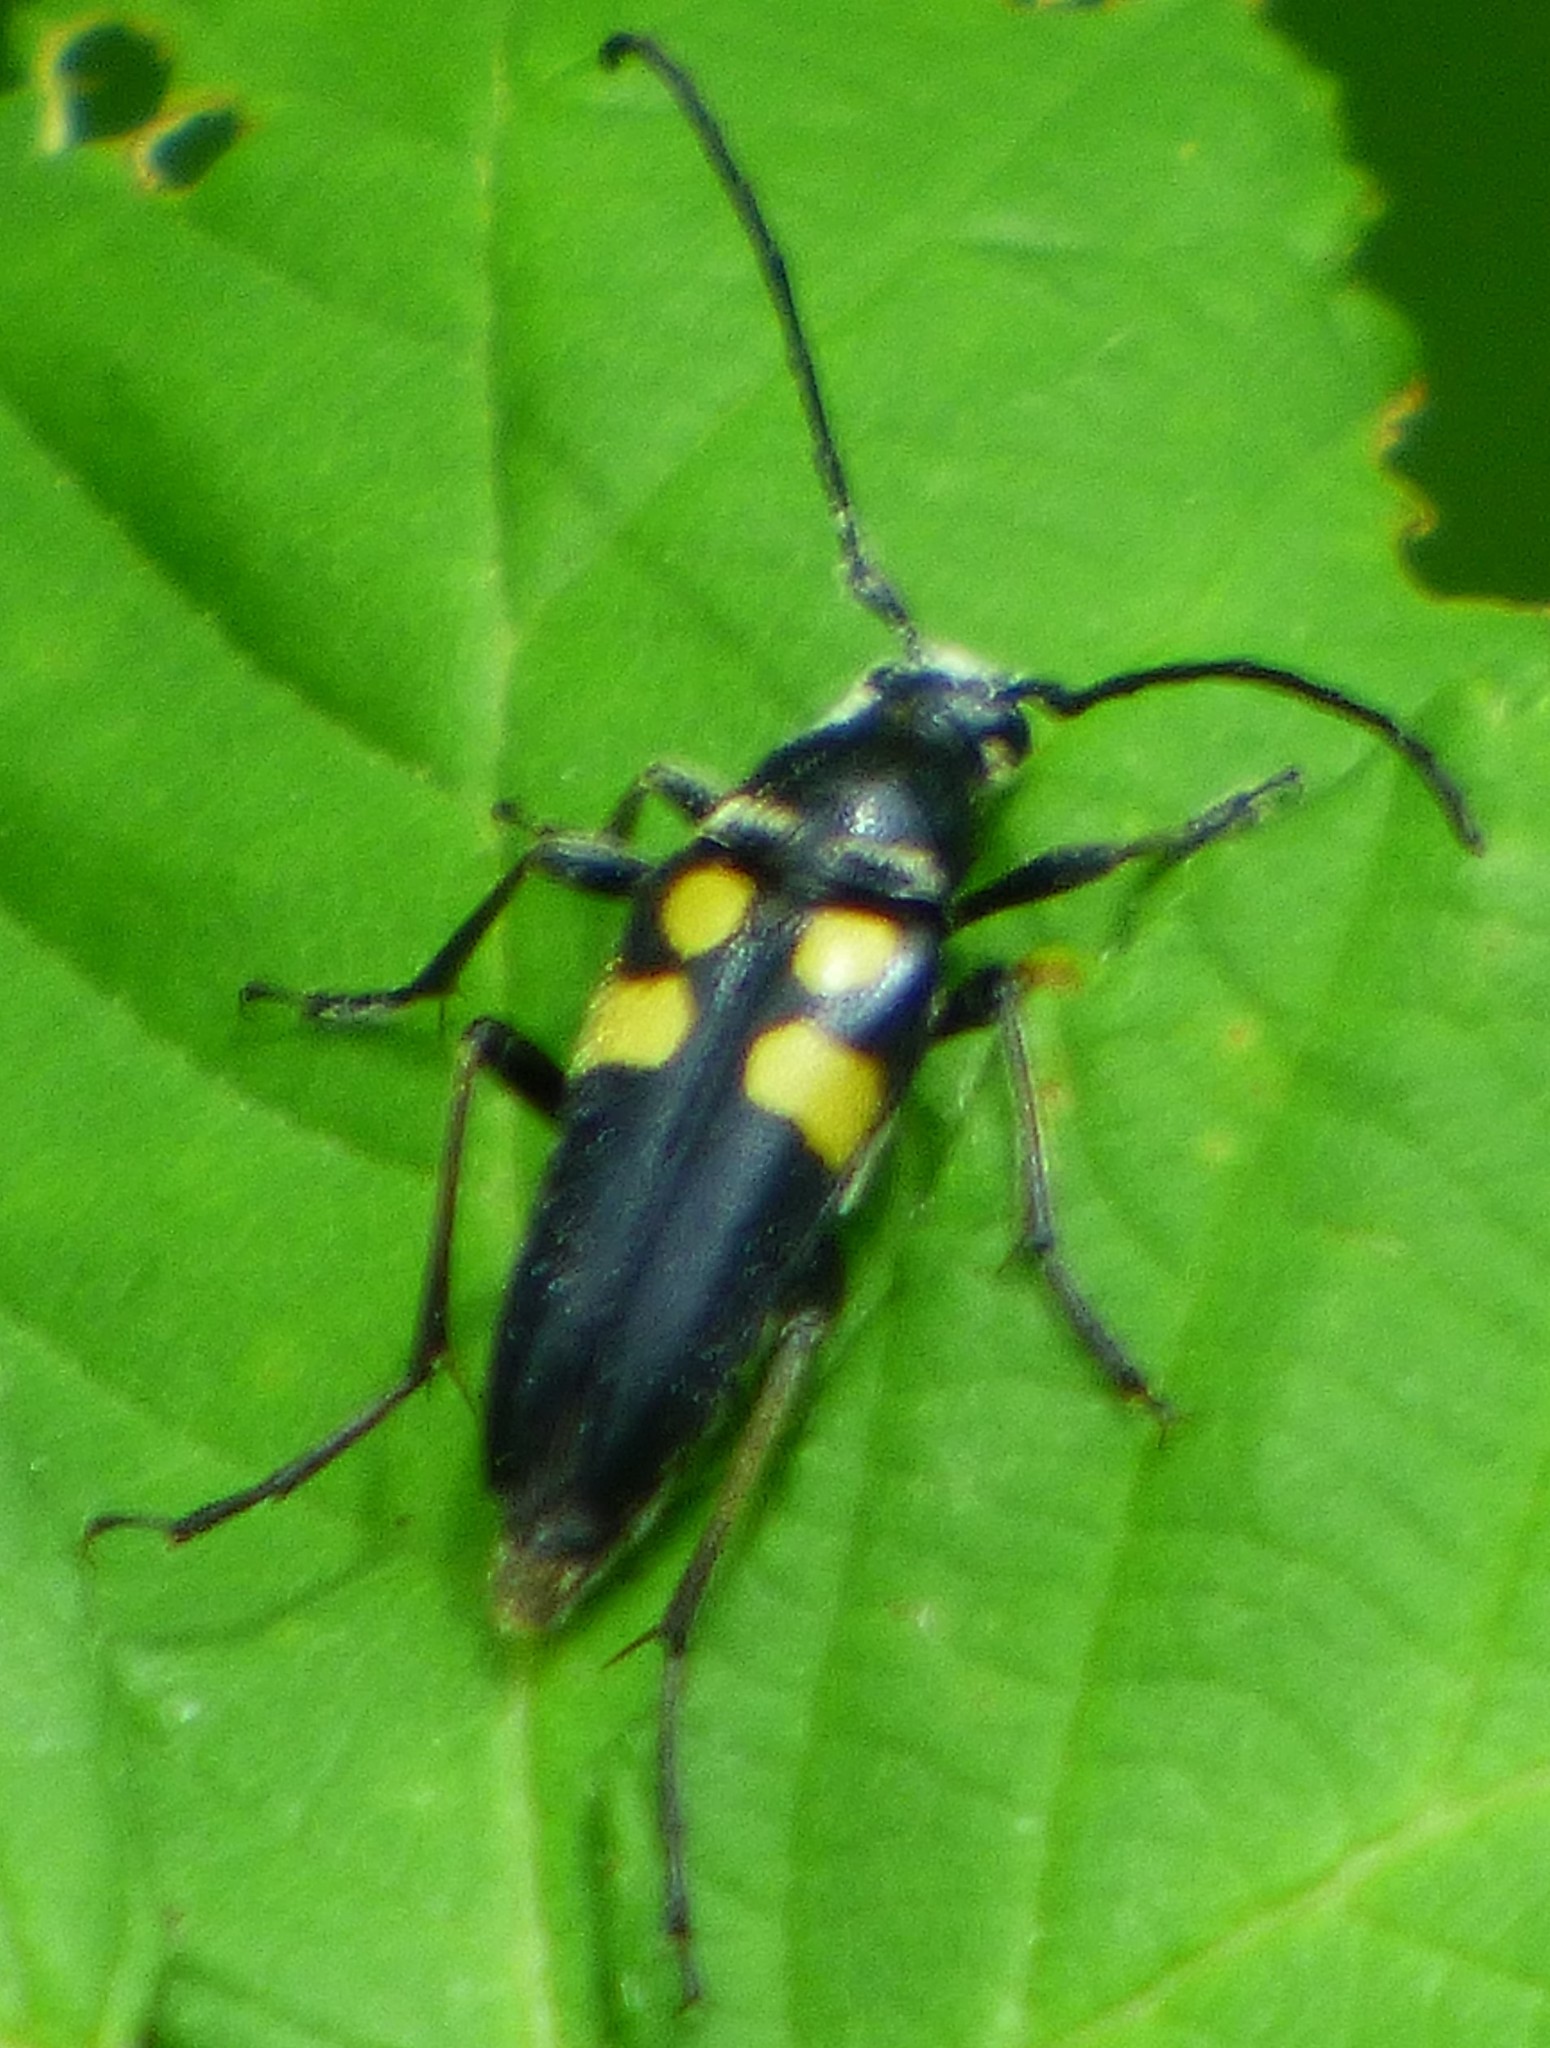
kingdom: Animalia
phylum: Arthropoda
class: Insecta
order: Coleoptera
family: Cerambycidae
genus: Typocerus
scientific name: Typocerus lunulatus
